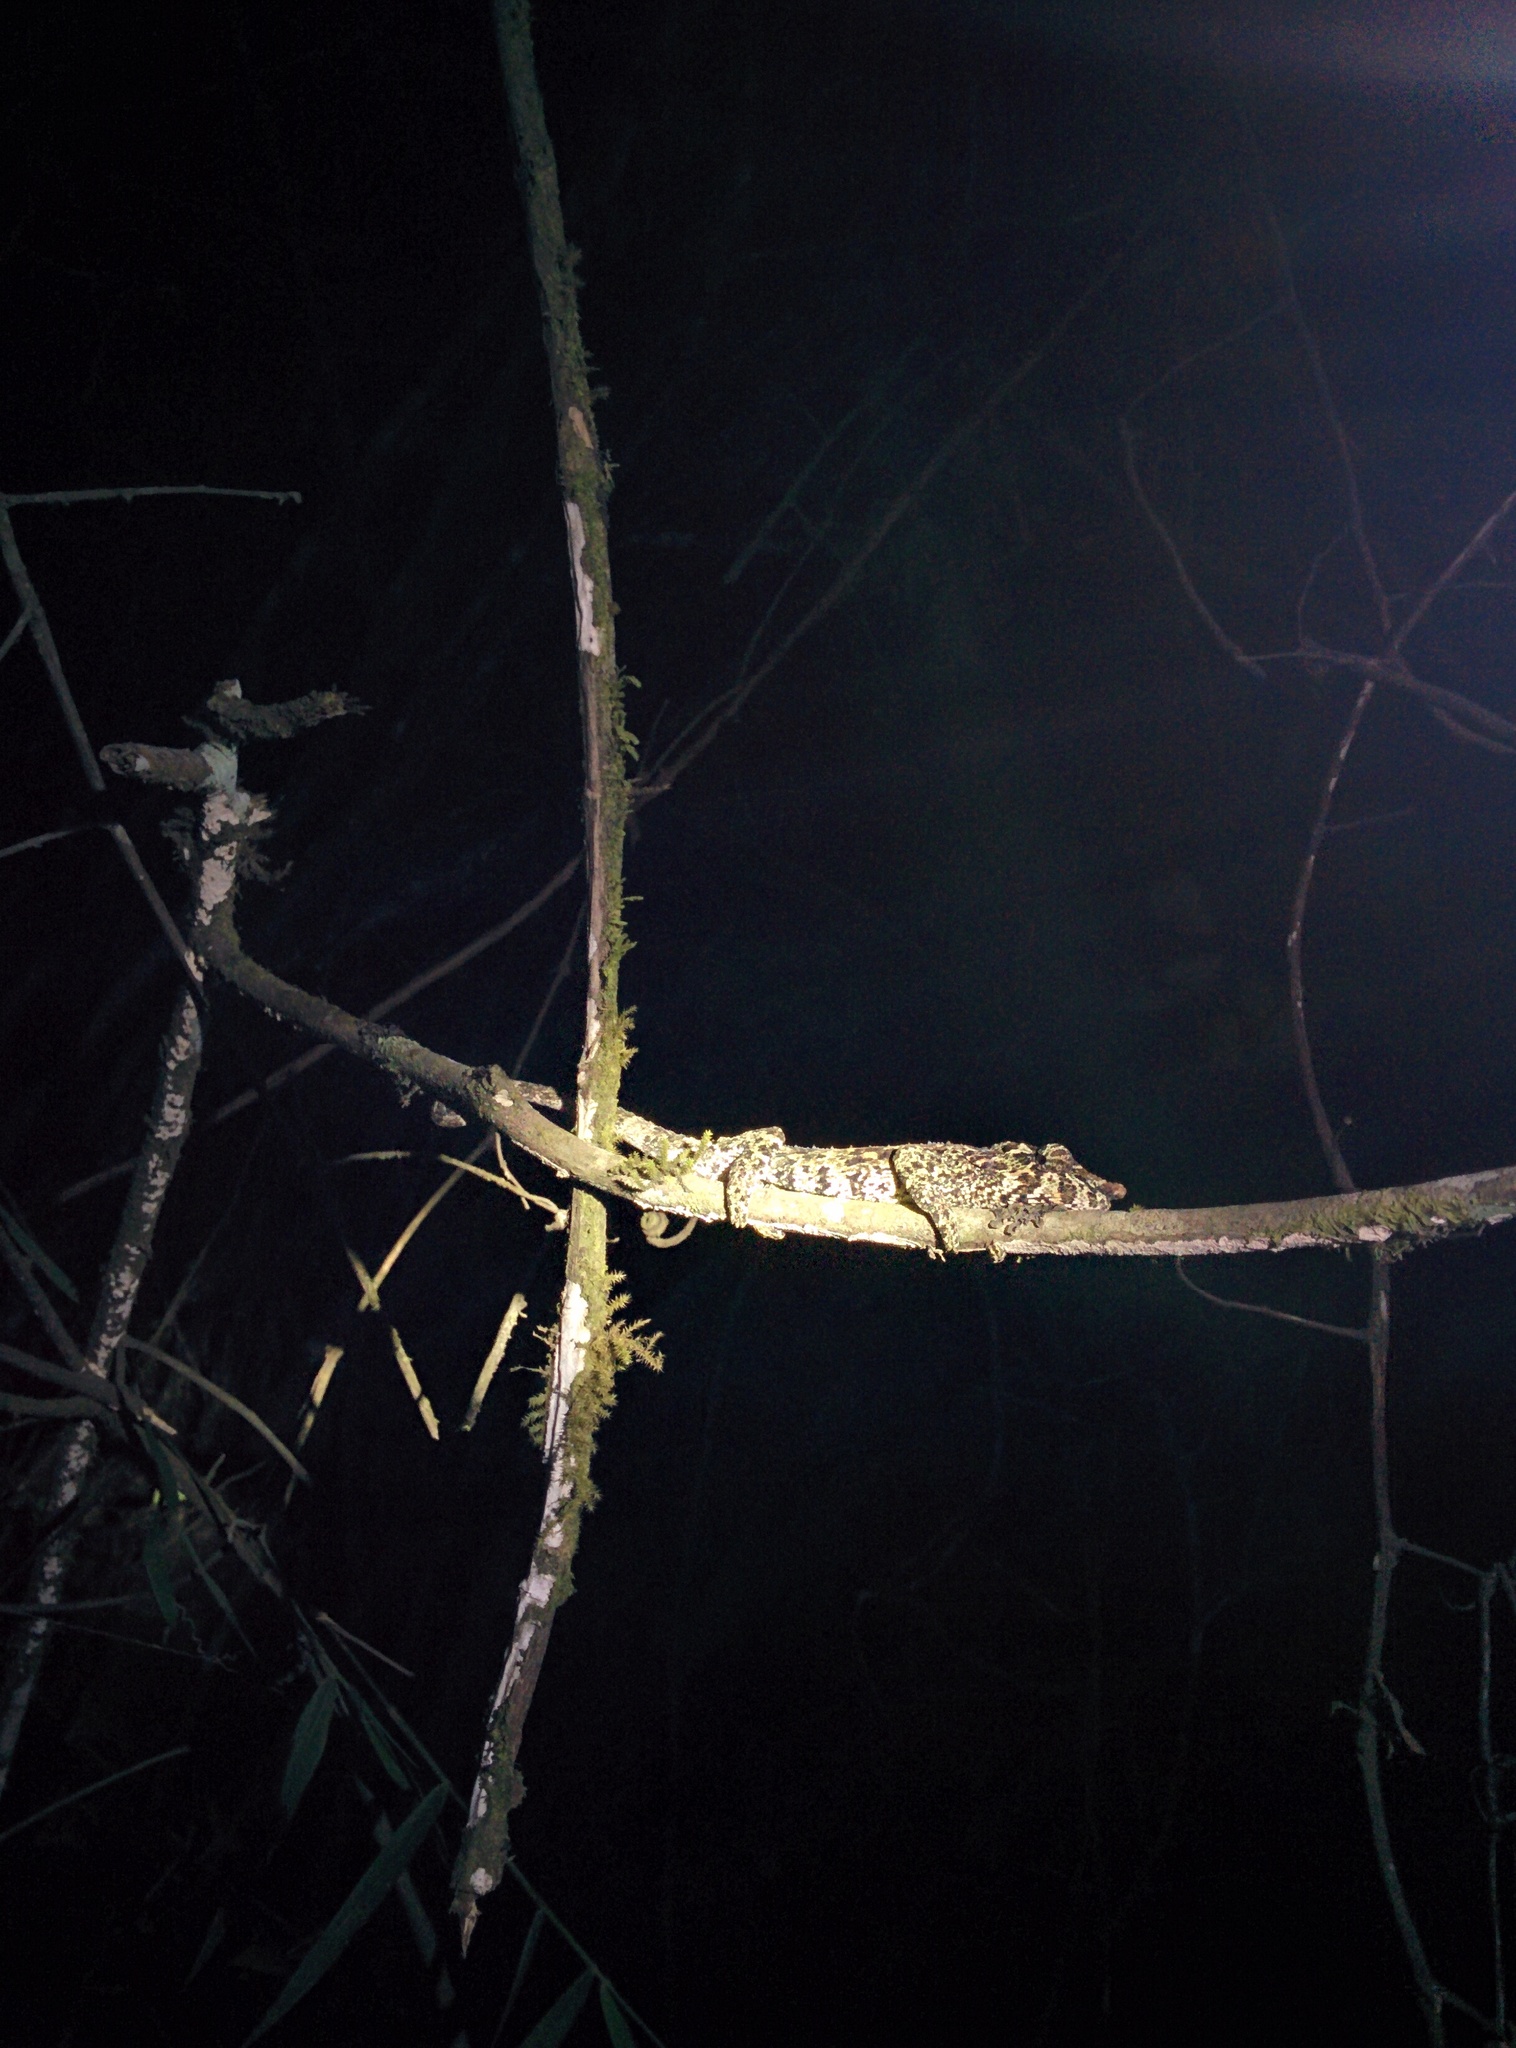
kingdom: Animalia
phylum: Chordata
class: Squamata
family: Chamaeleonidae
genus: Calumma
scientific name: Calumma crypticum
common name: Cryptic chameleon
